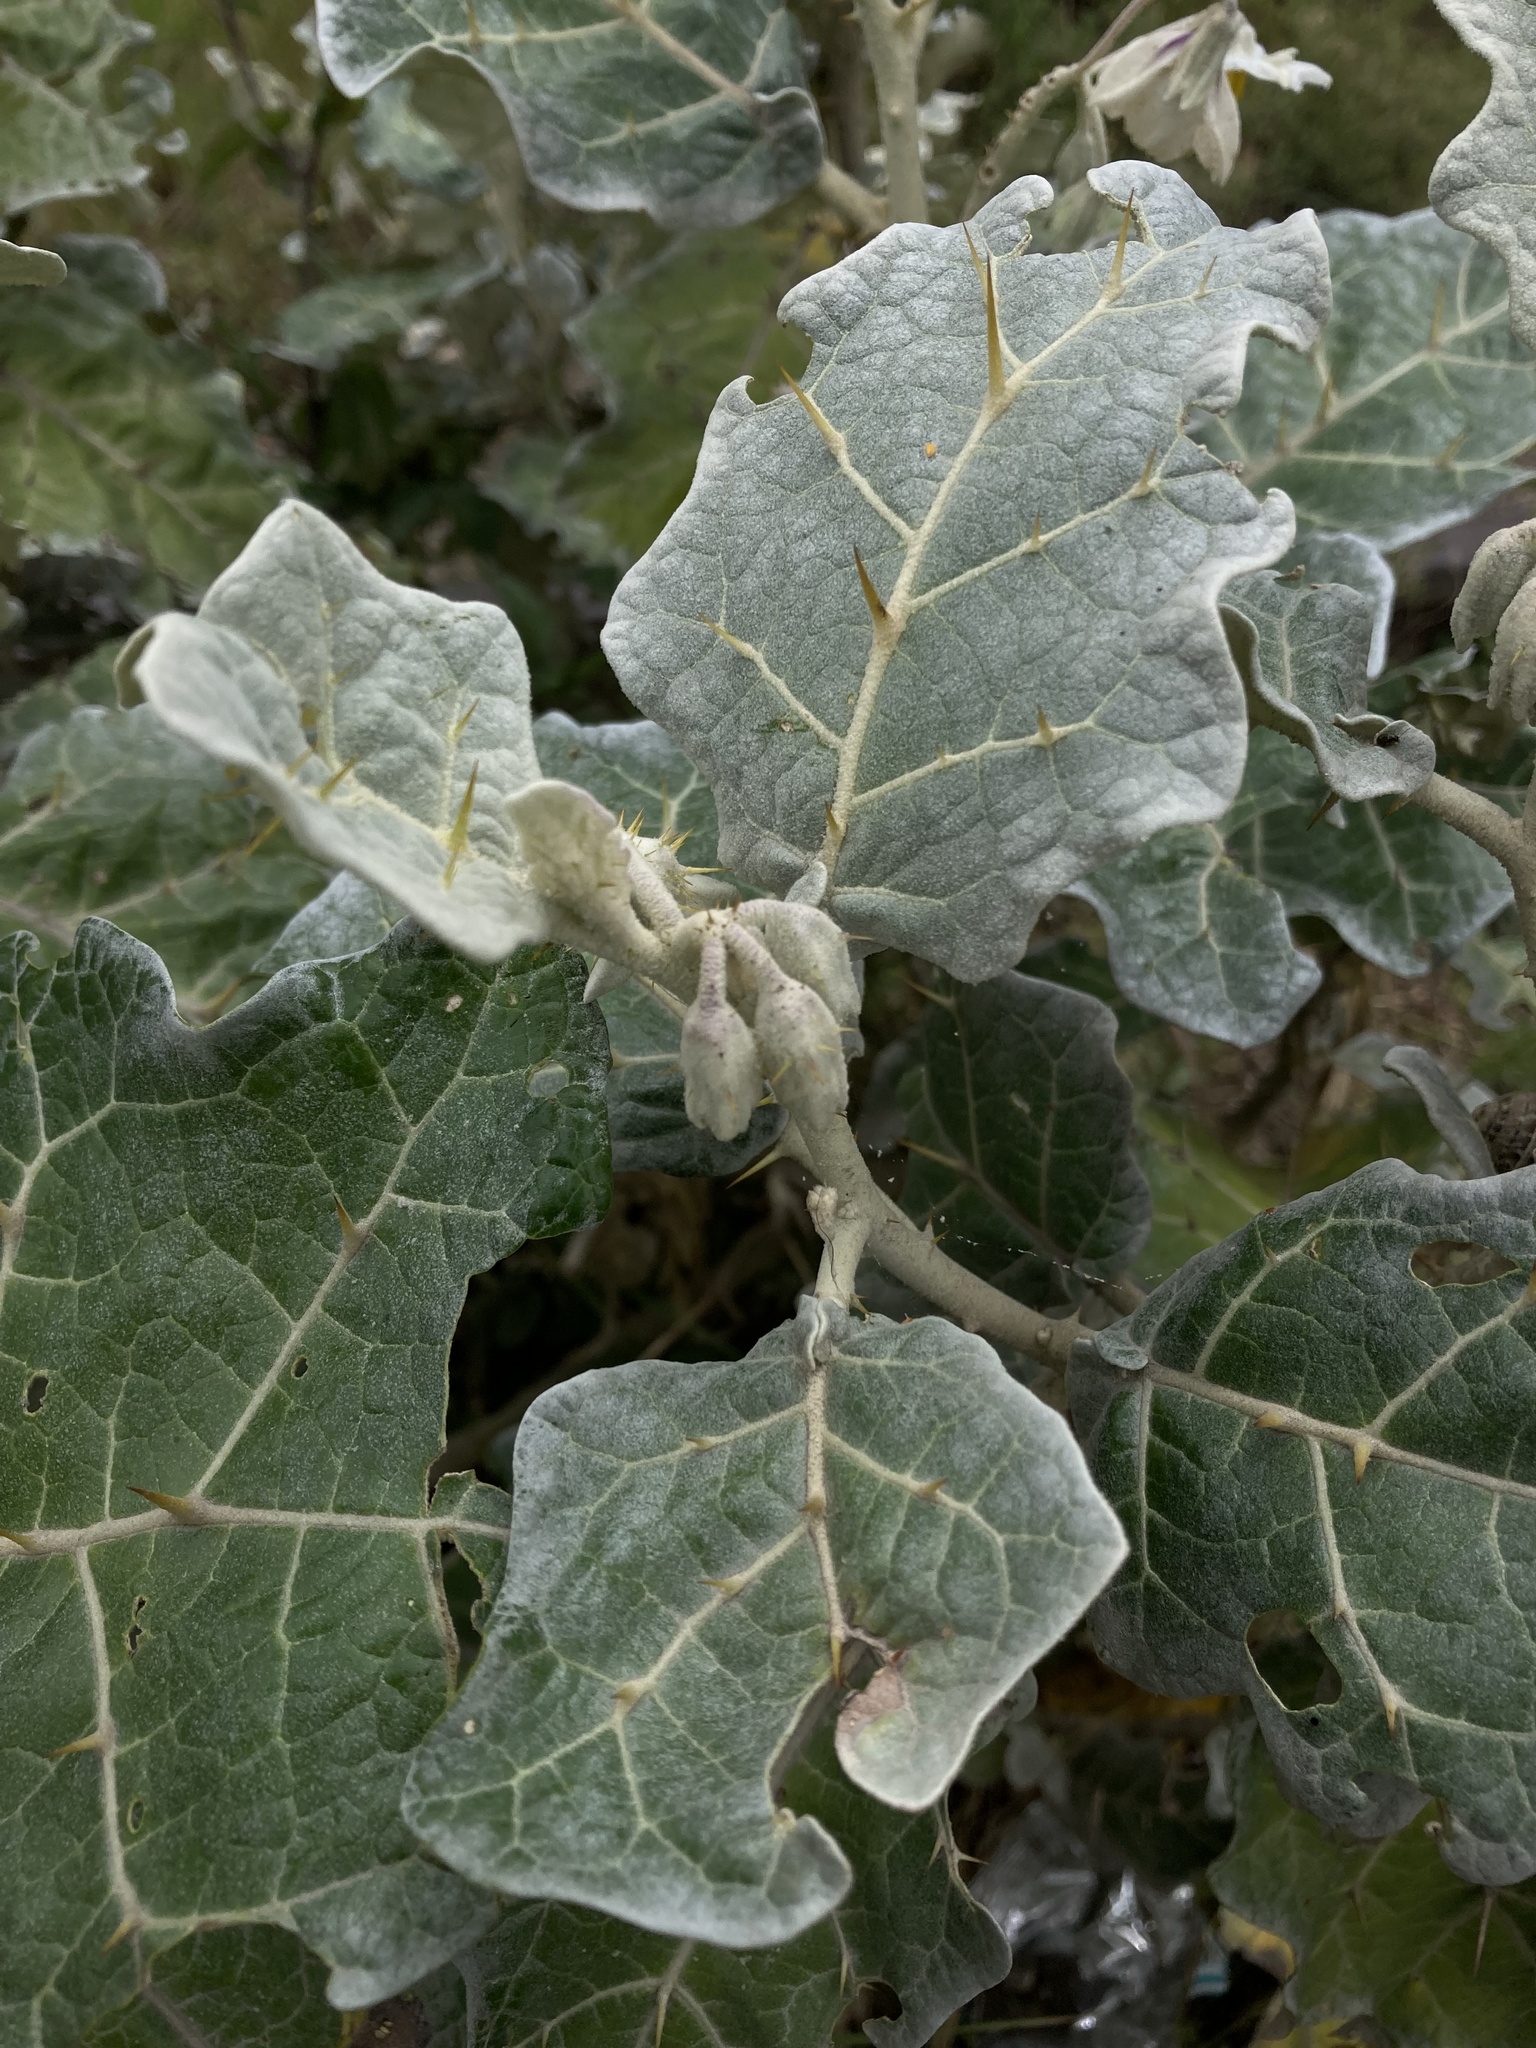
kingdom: Plantae
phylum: Tracheophyta
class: Magnoliopsida
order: Solanales
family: Solanaceae
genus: Solanum
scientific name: Solanum marginatum
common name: Purple african nightshade
